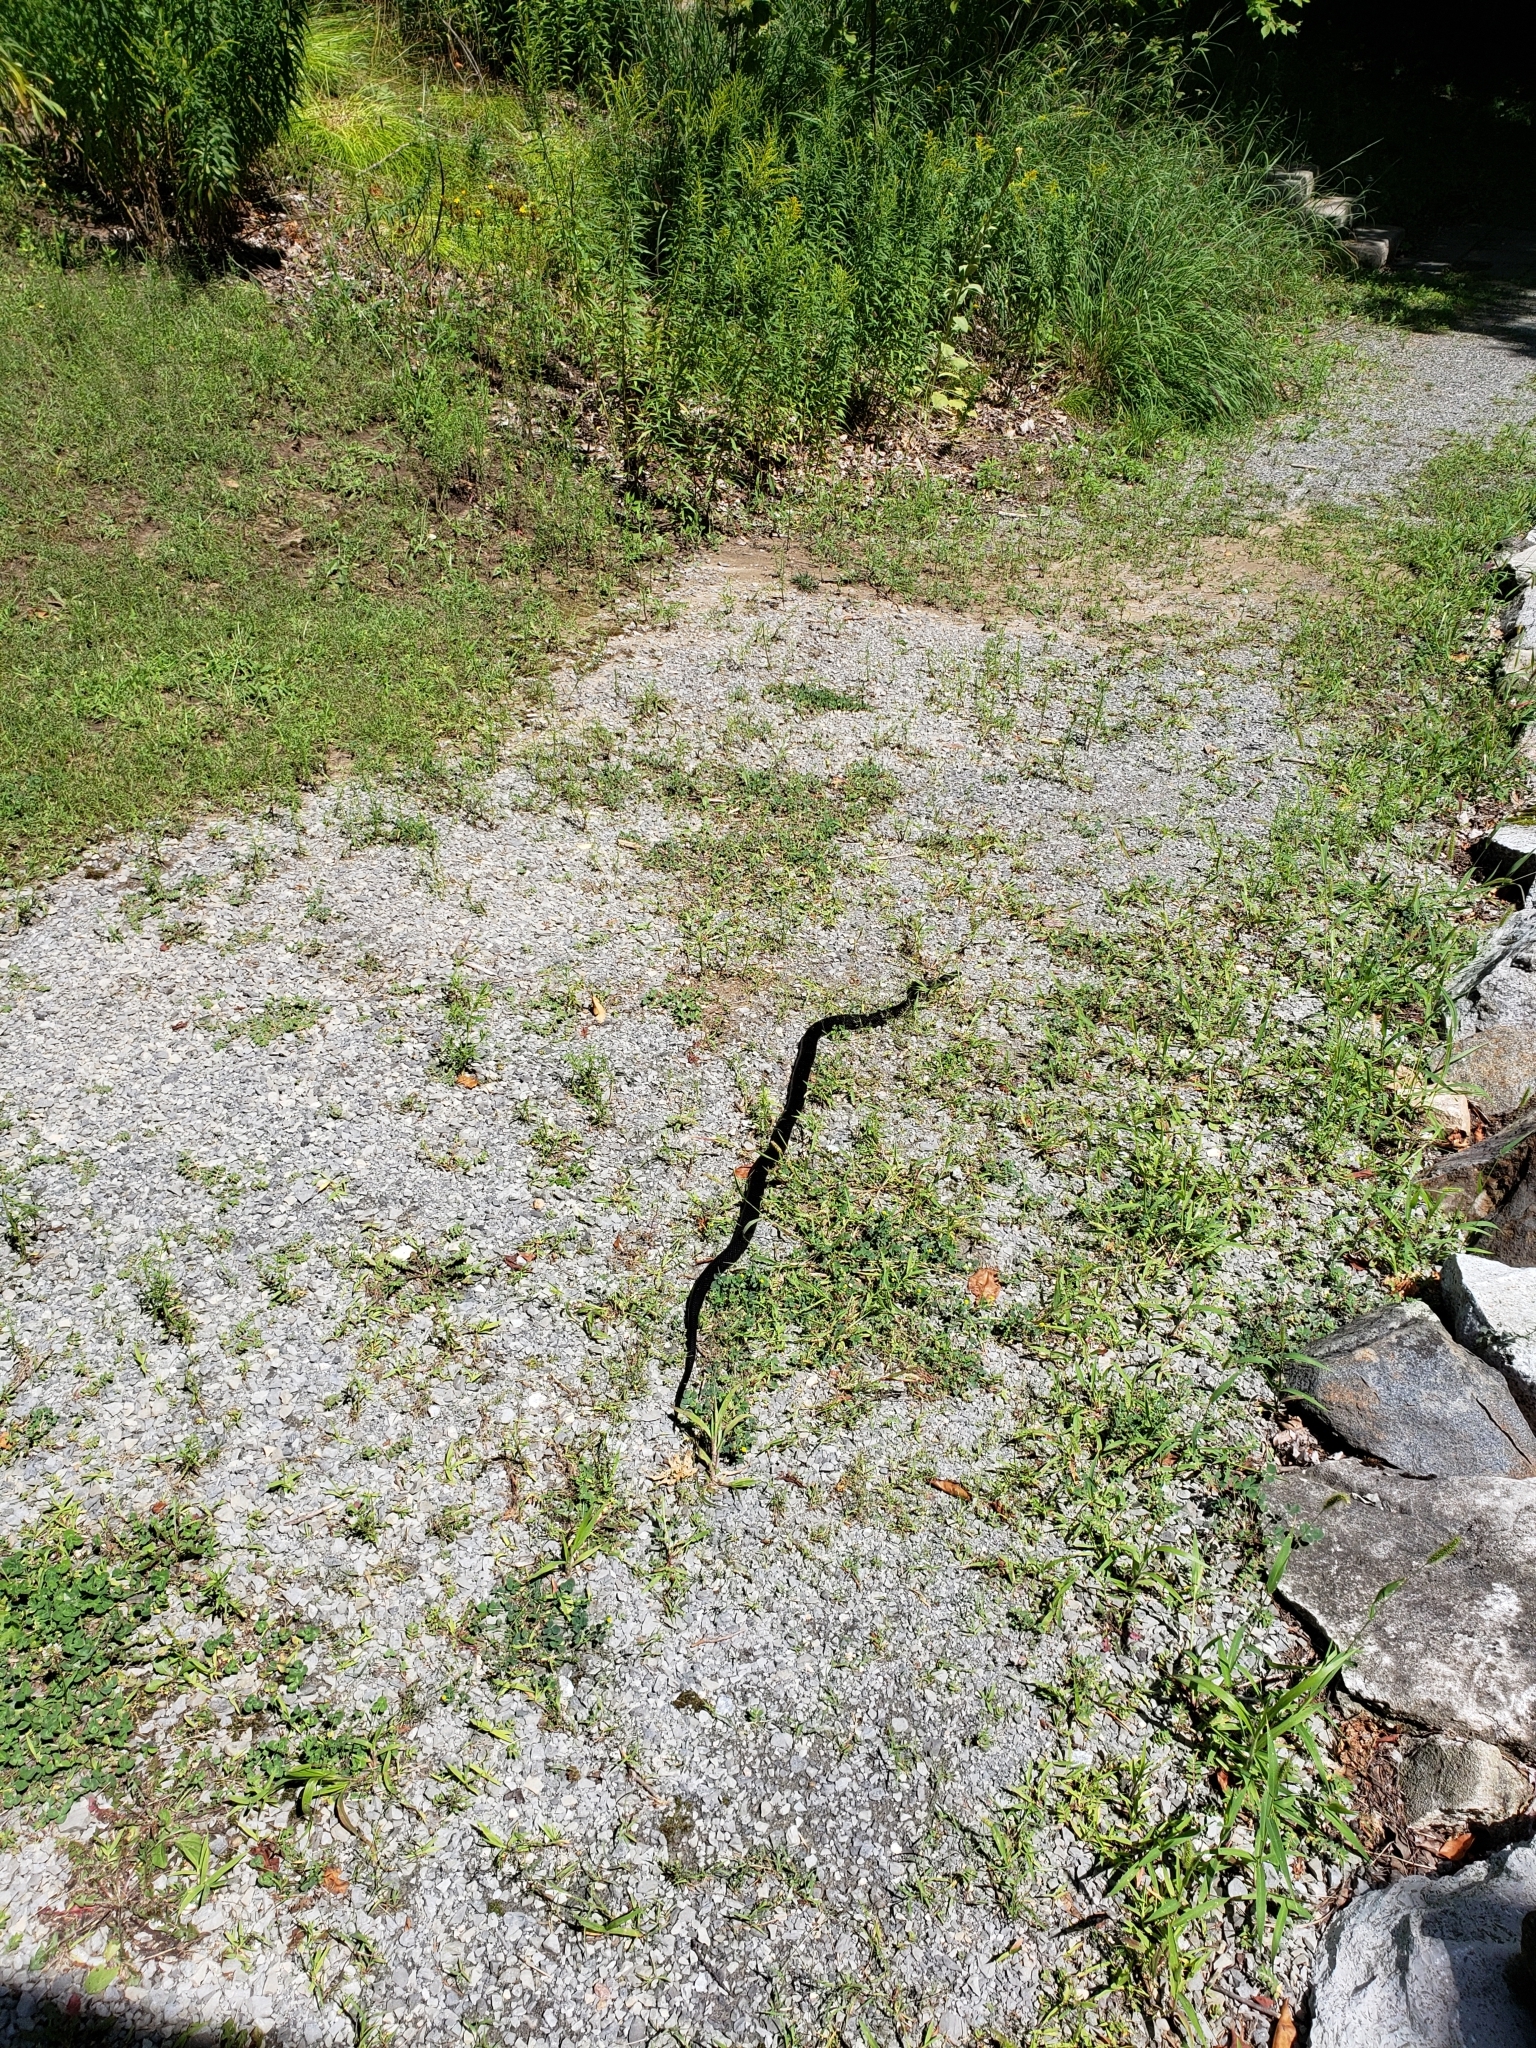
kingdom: Animalia
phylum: Chordata
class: Squamata
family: Colubridae
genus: Pantherophis
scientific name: Pantherophis spiloides
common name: Gray rat snake
